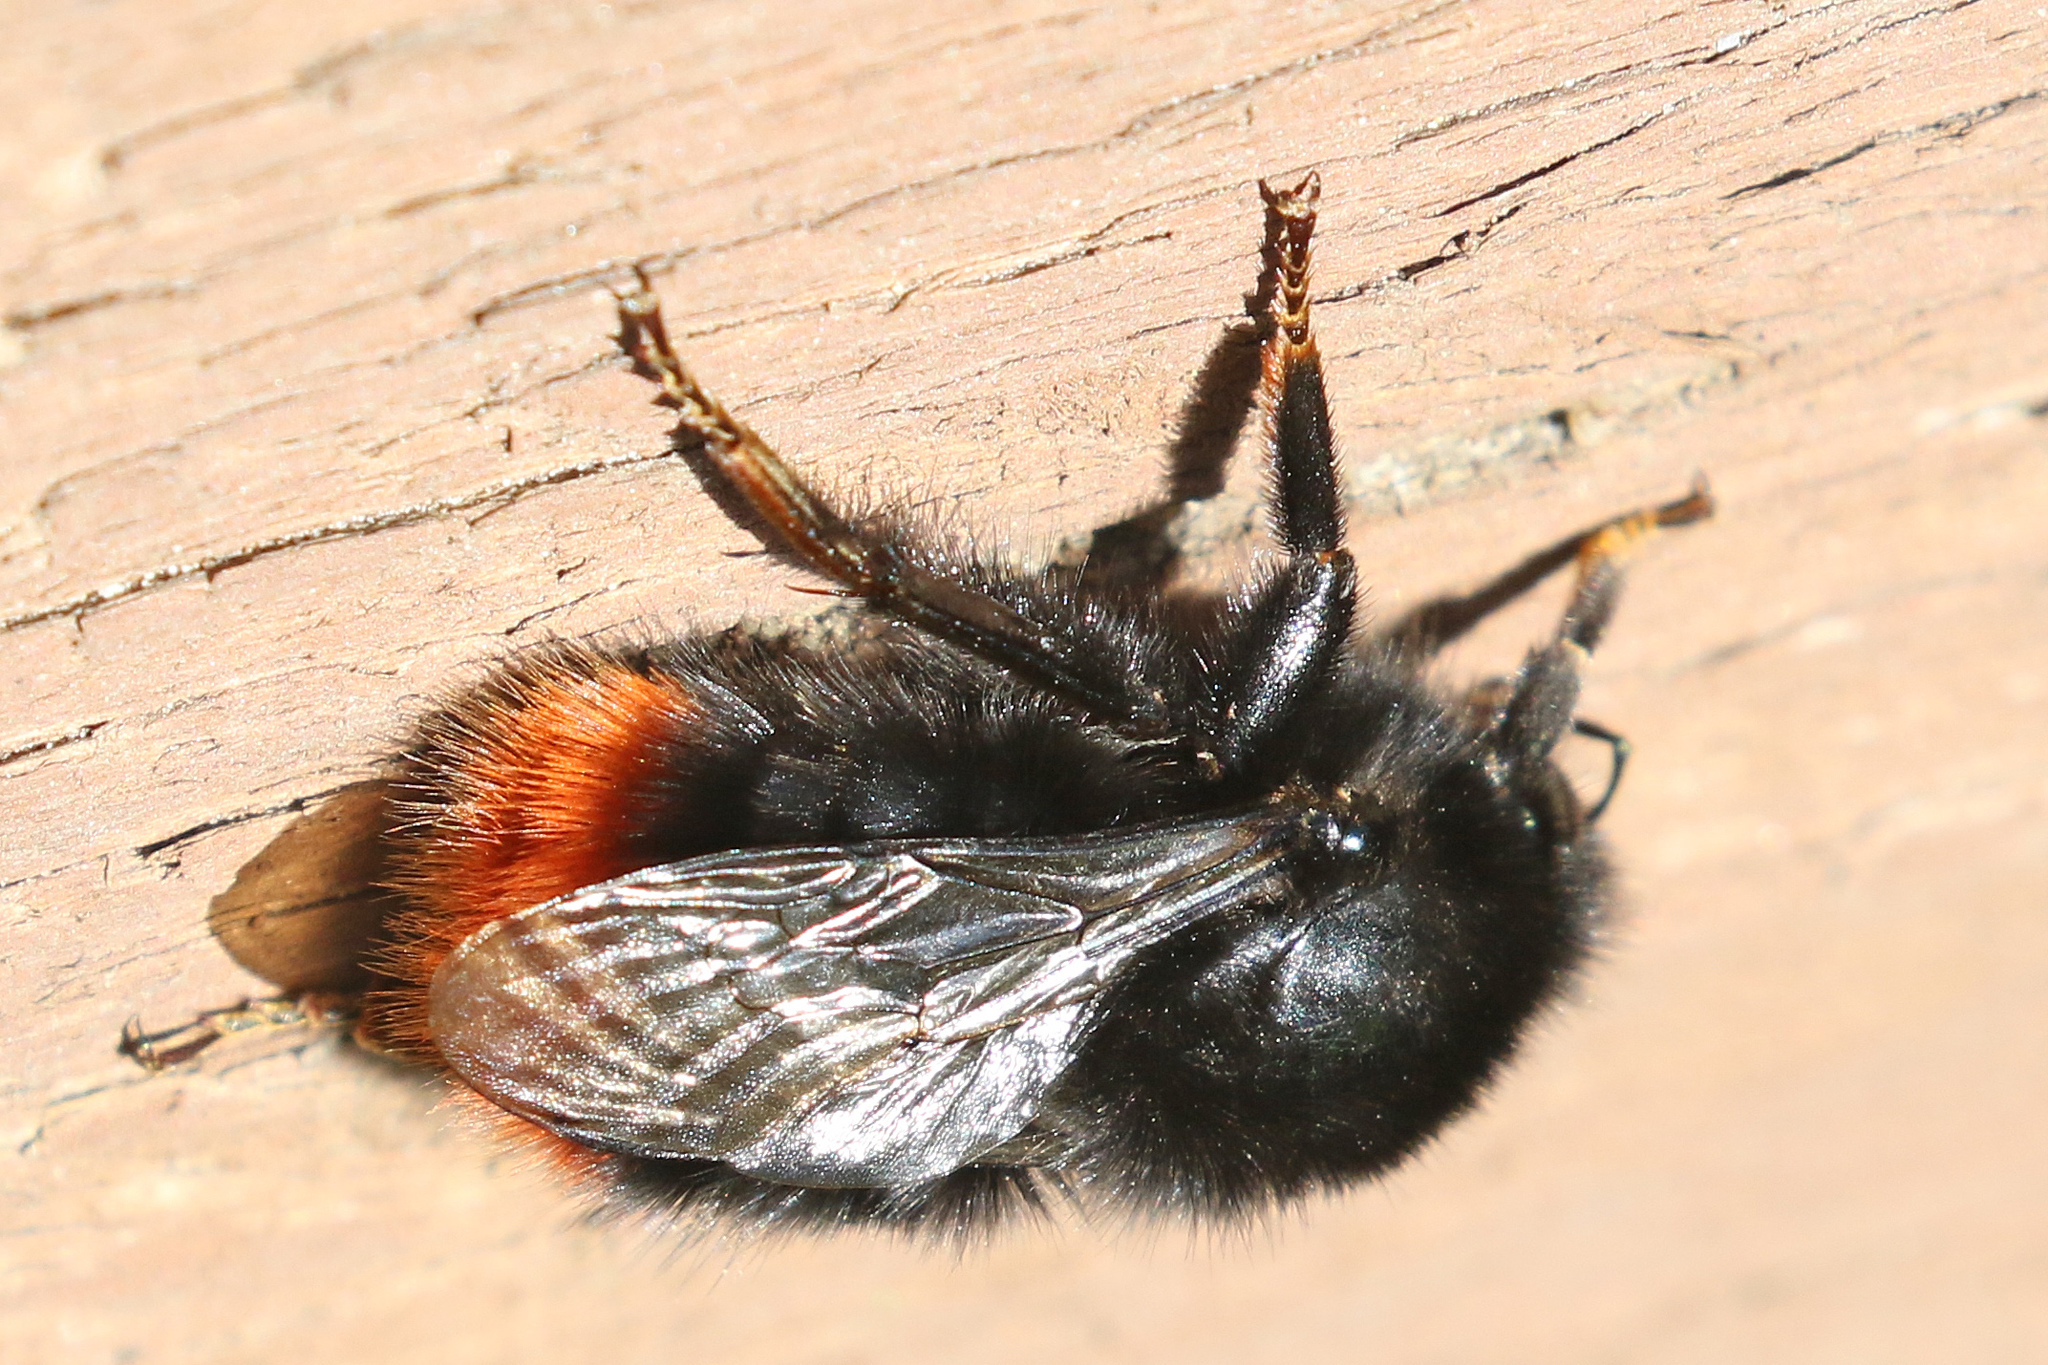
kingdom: Animalia
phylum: Arthropoda
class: Insecta
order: Hymenoptera
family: Apidae
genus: Bombus
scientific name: Bombus lapidarius
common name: Large red-tailed humble-bee
